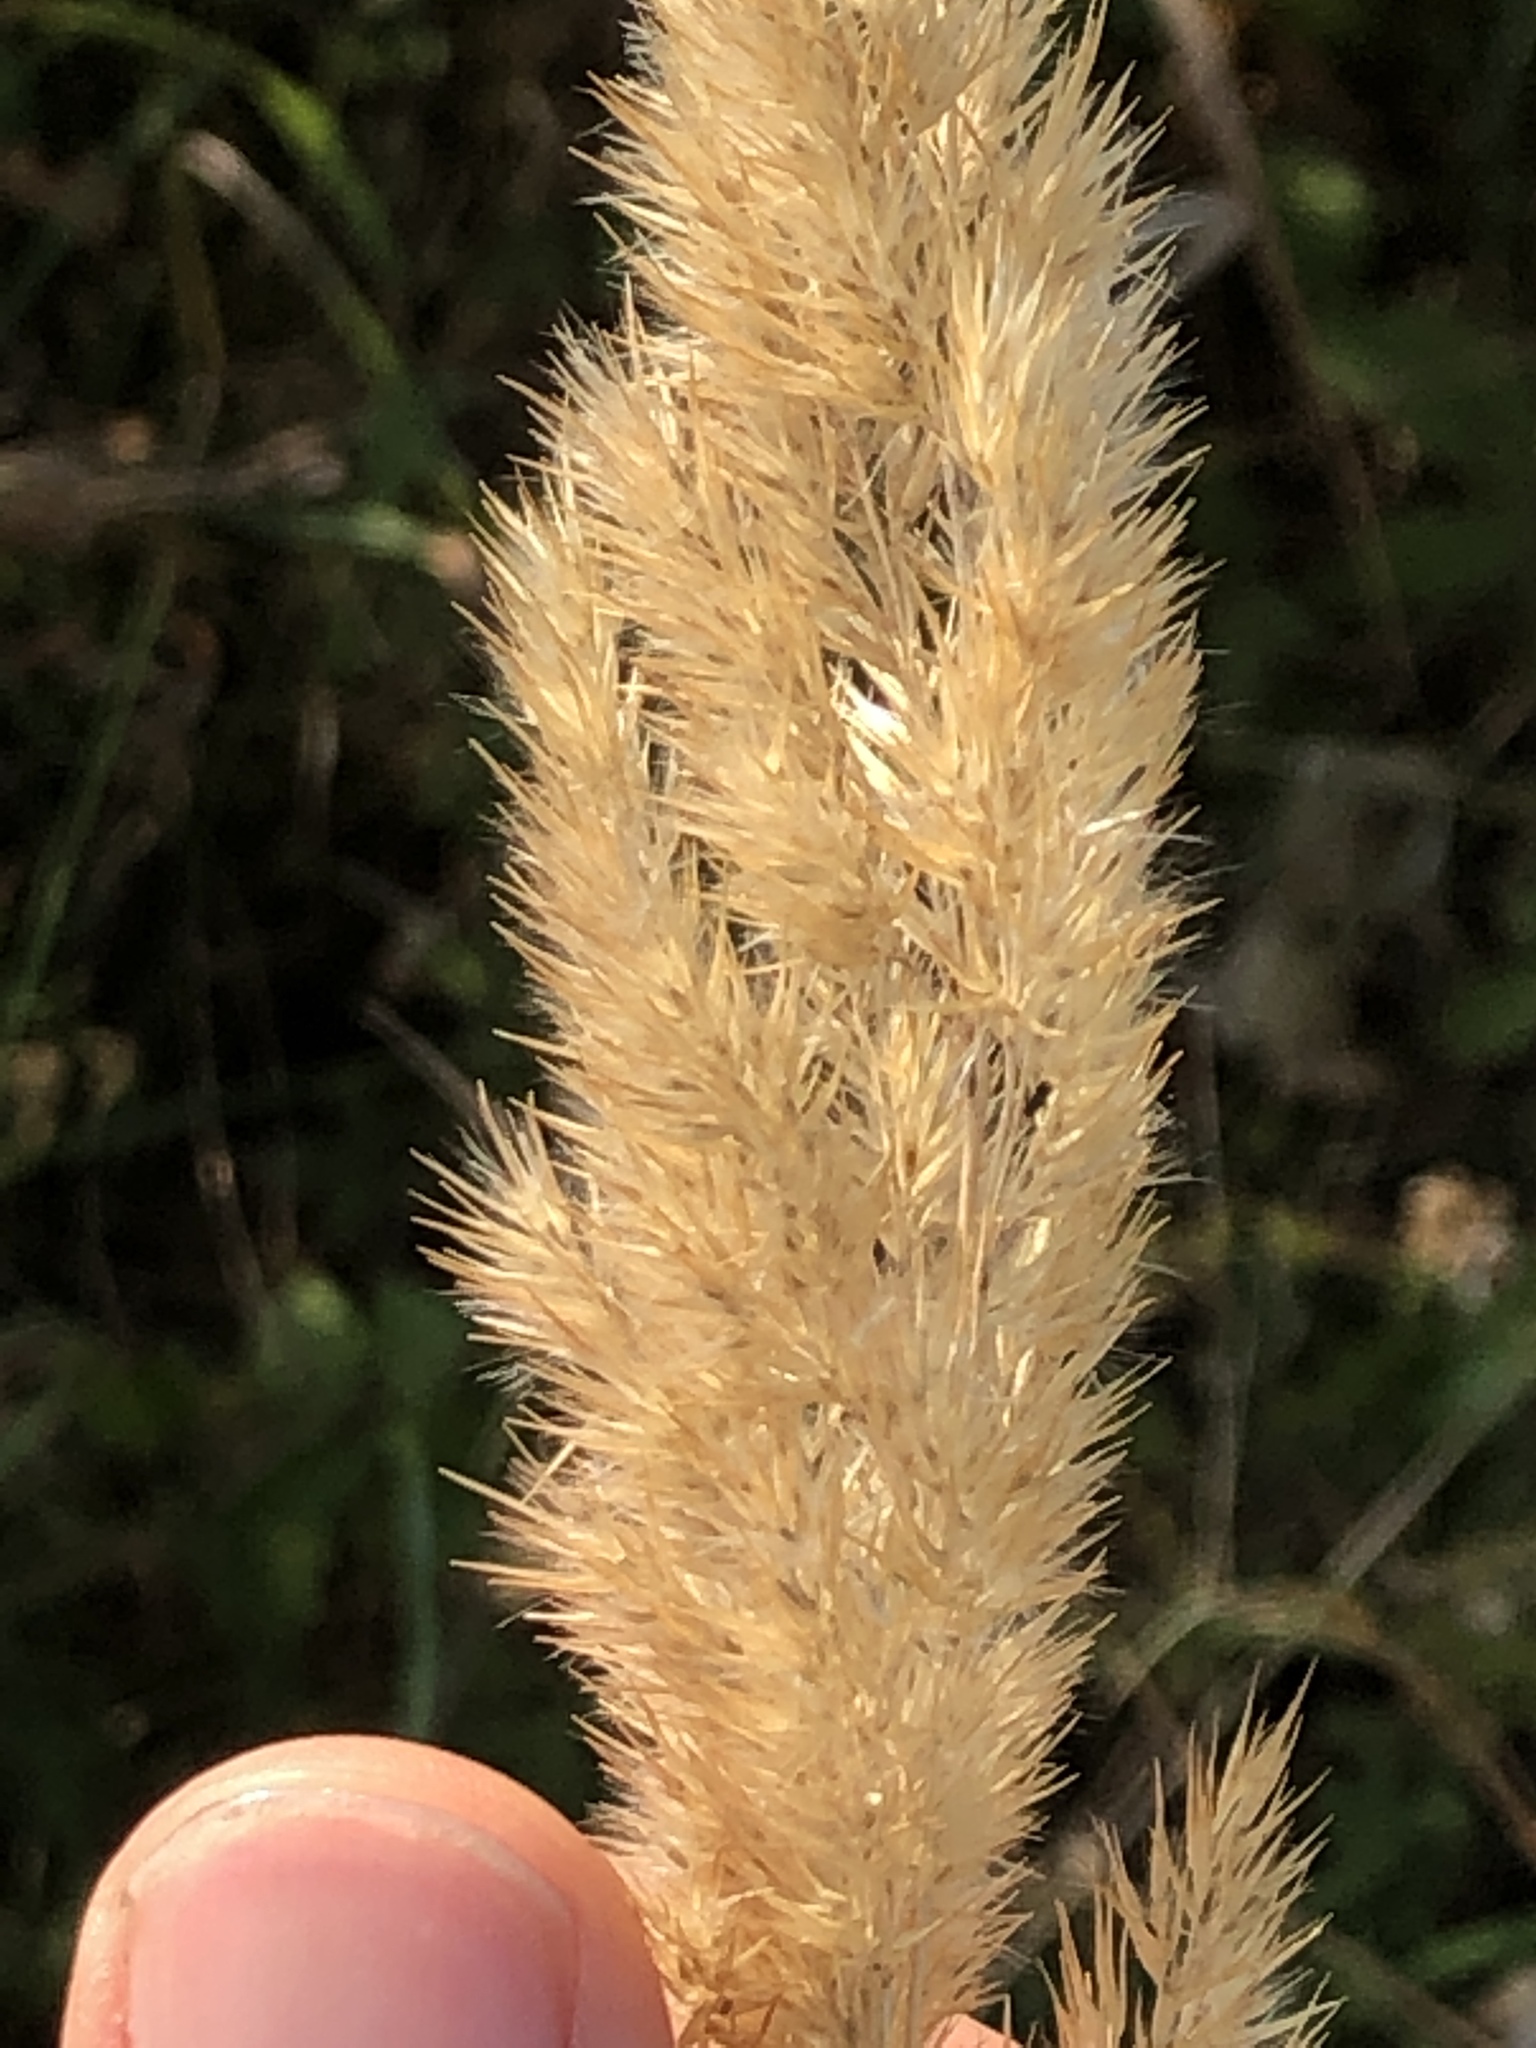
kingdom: Plantae
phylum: Tracheophyta
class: Liliopsida
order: Poales
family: Poaceae
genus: Calamagrostis
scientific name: Calamagrostis epigejos
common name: Wood small-reed
